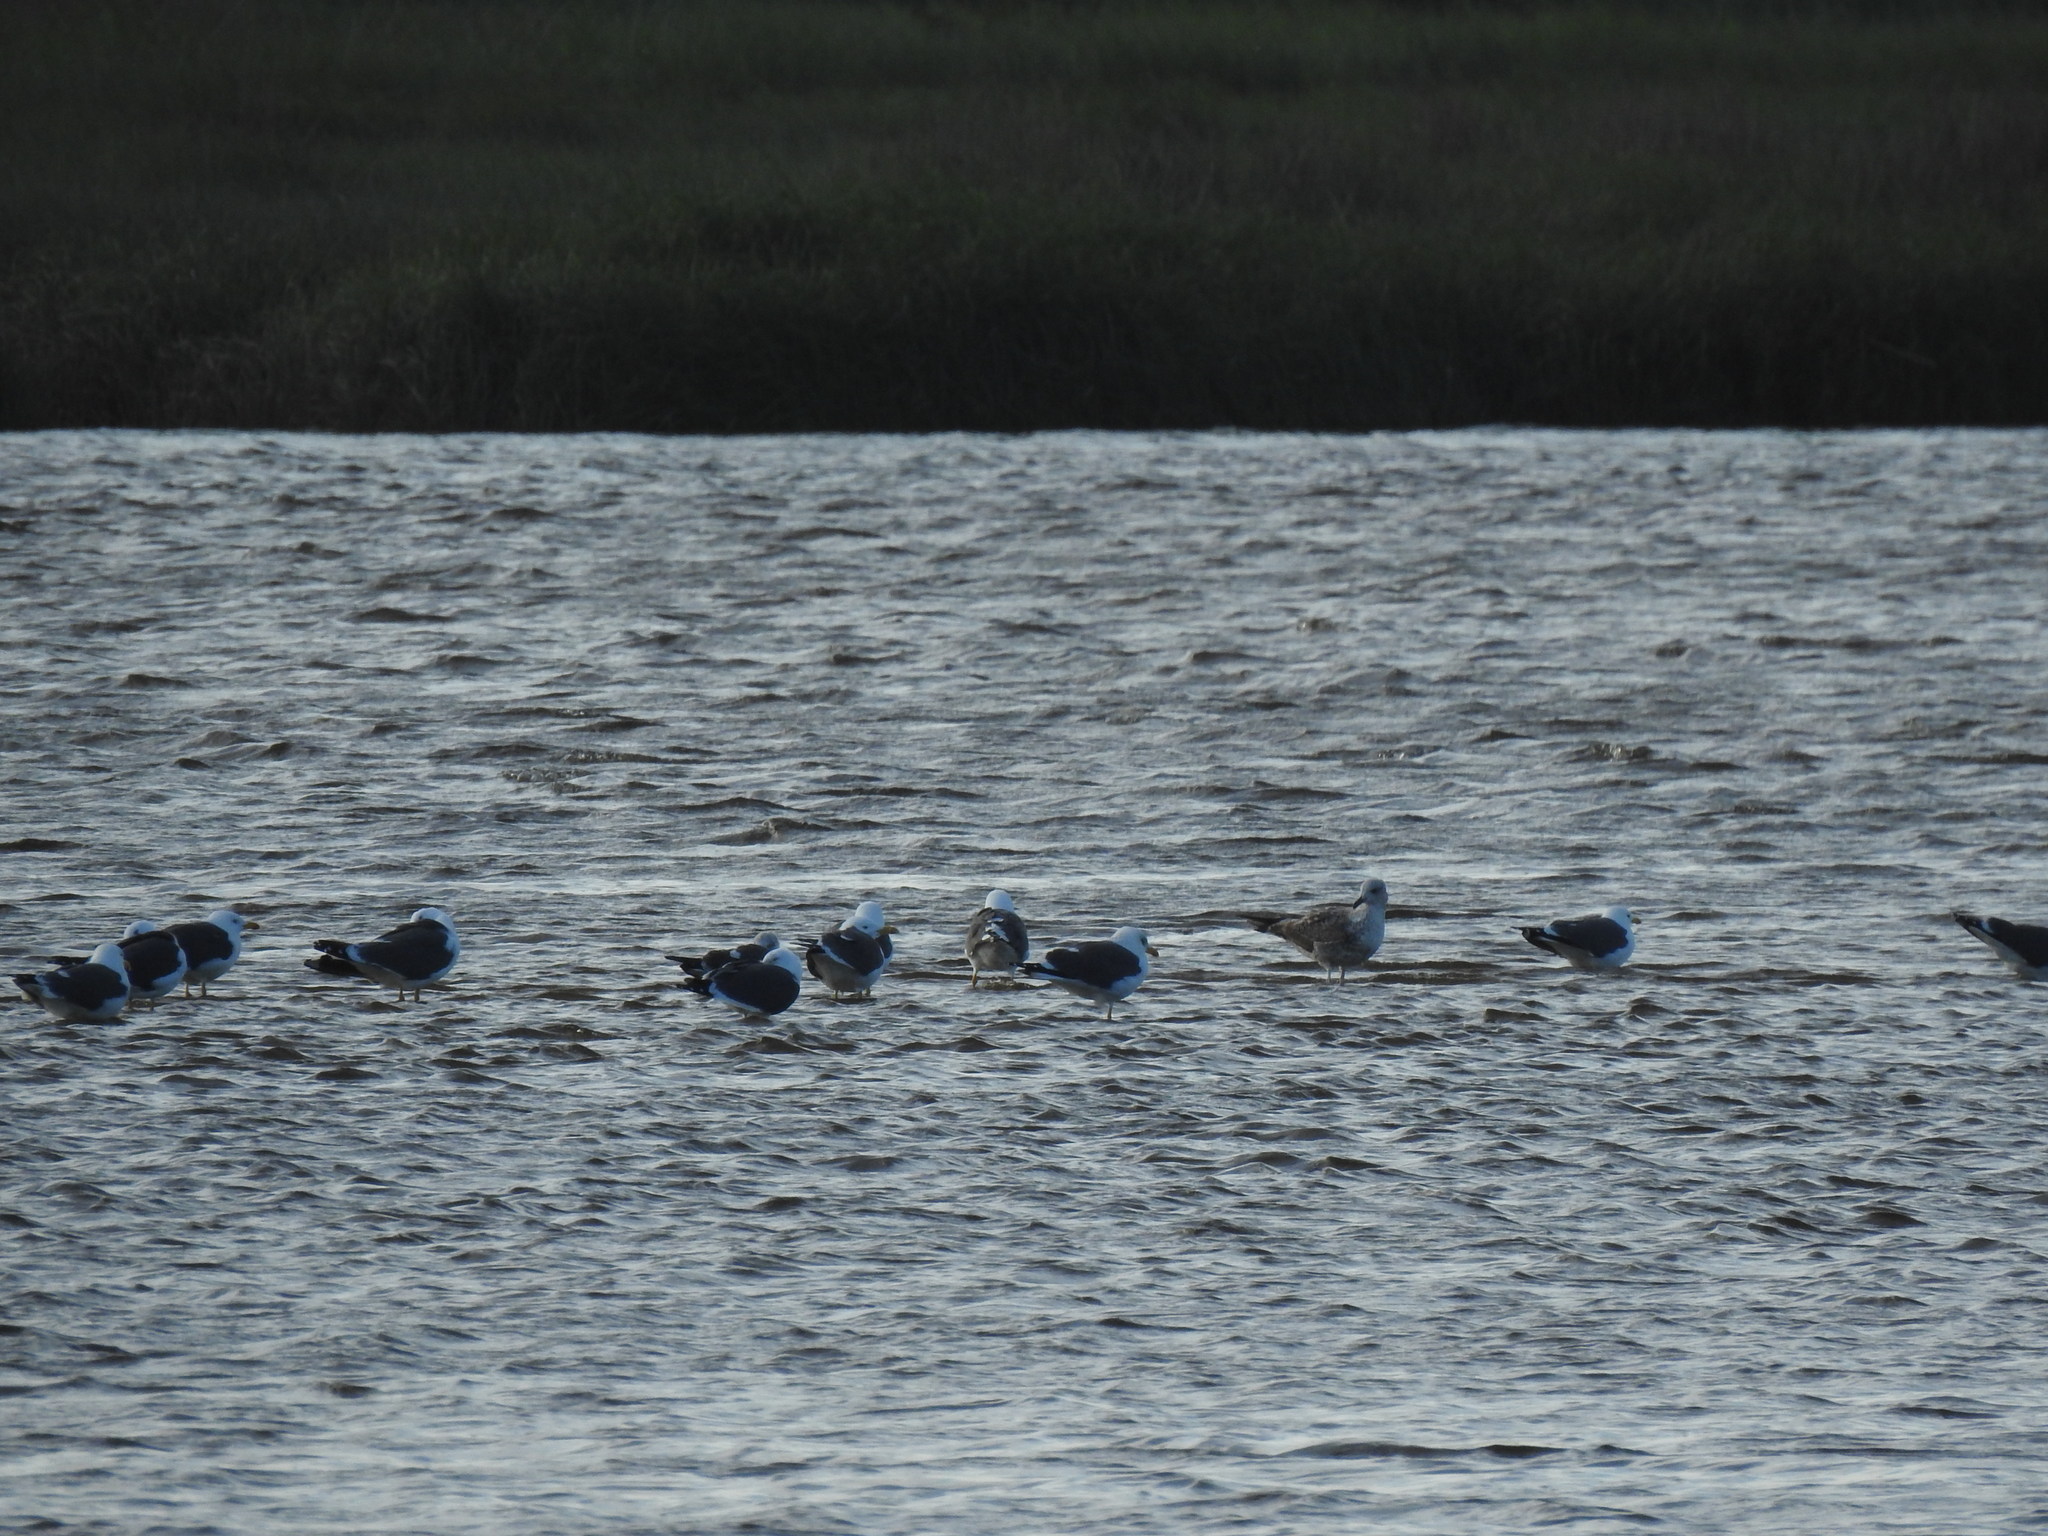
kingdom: Animalia
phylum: Chordata
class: Aves
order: Charadriiformes
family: Laridae
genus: Larus
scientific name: Larus fuscus
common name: Lesser black-backed gull
